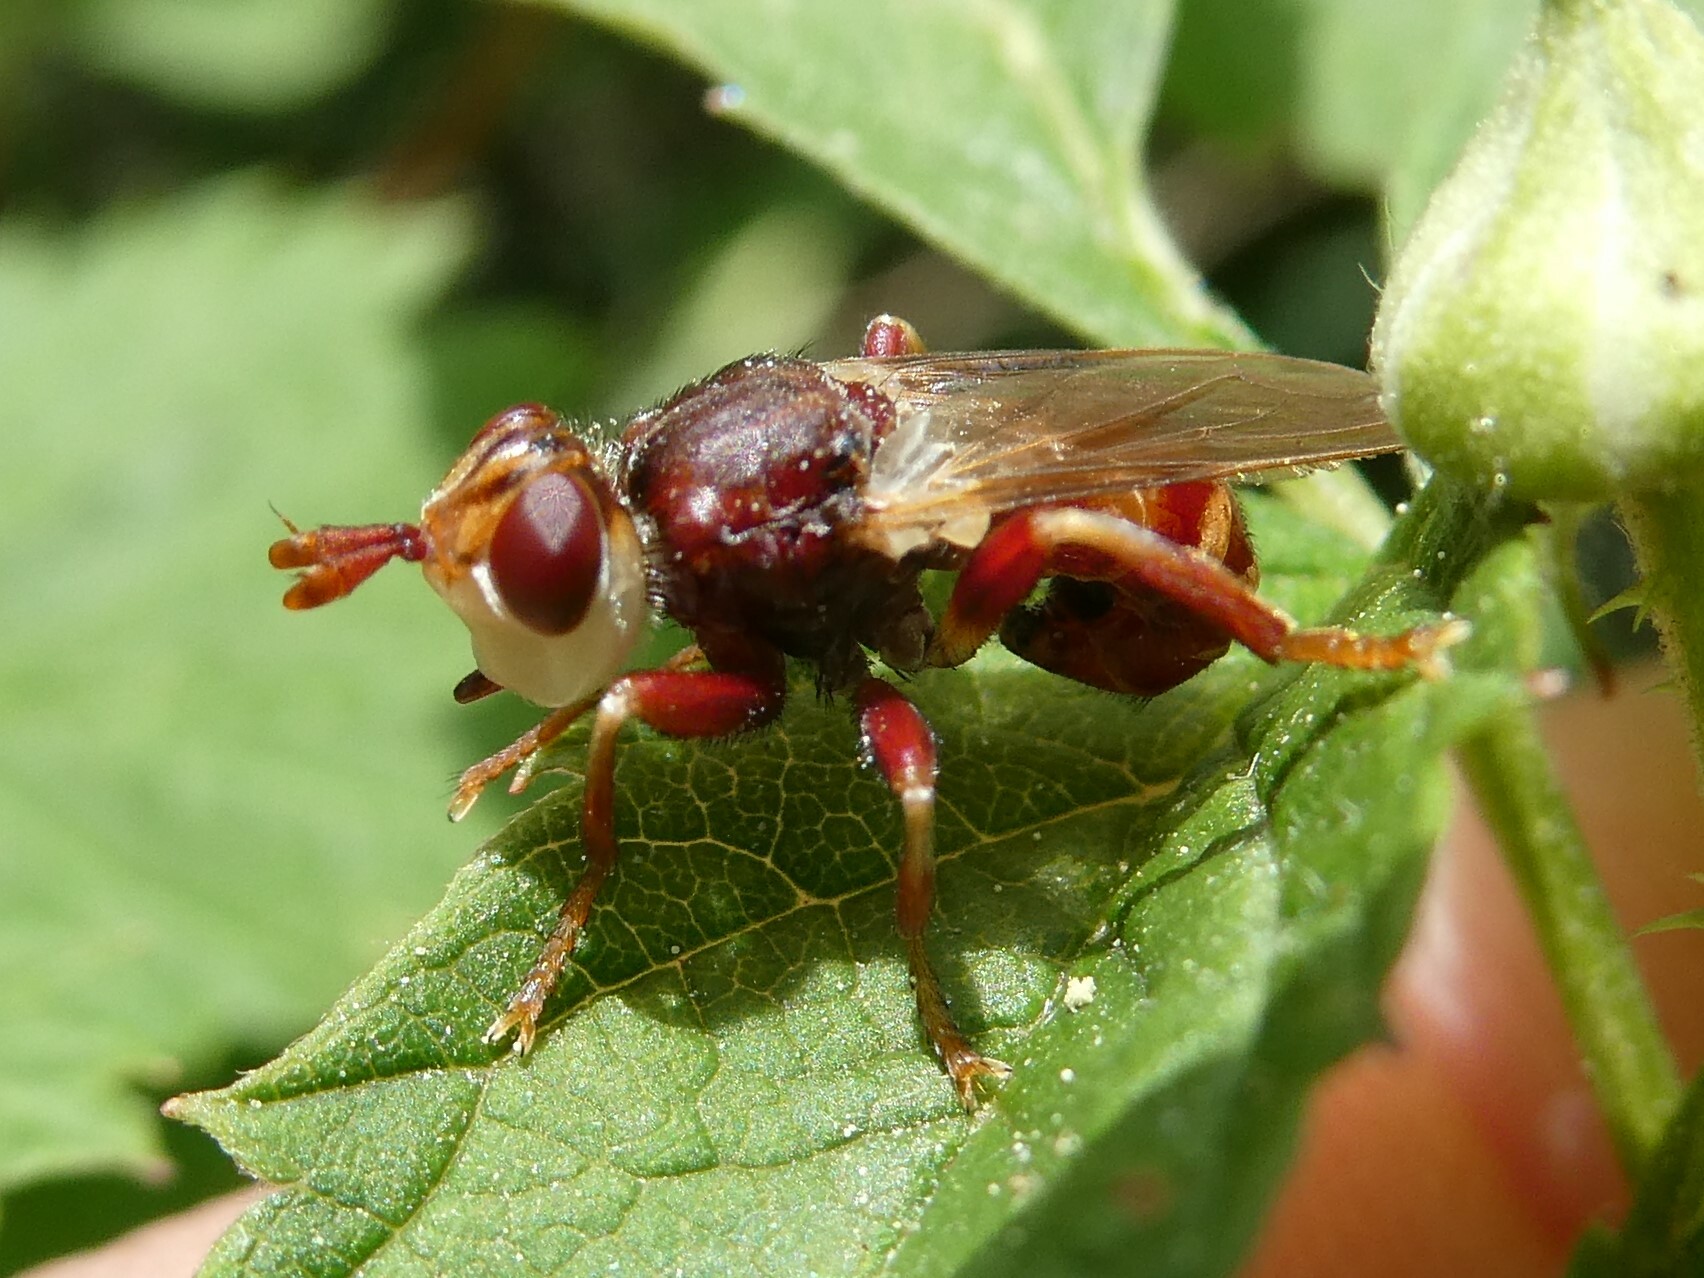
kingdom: Animalia
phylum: Arthropoda
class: Insecta
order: Diptera
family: Conopidae
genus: Myopa
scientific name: Myopa clausa
